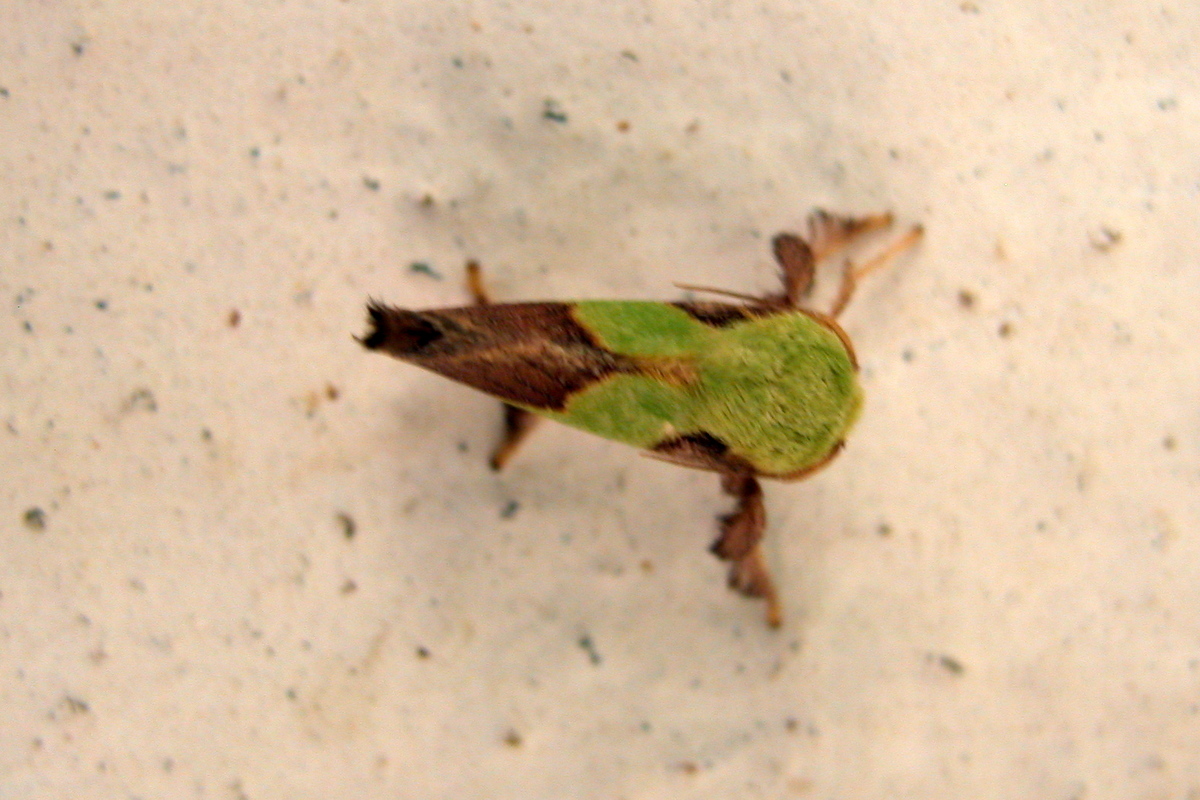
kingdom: Animalia
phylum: Arthropoda
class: Insecta
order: Lepidoptera
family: Limacodidae
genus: Aergina
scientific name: Aergina hilaris
